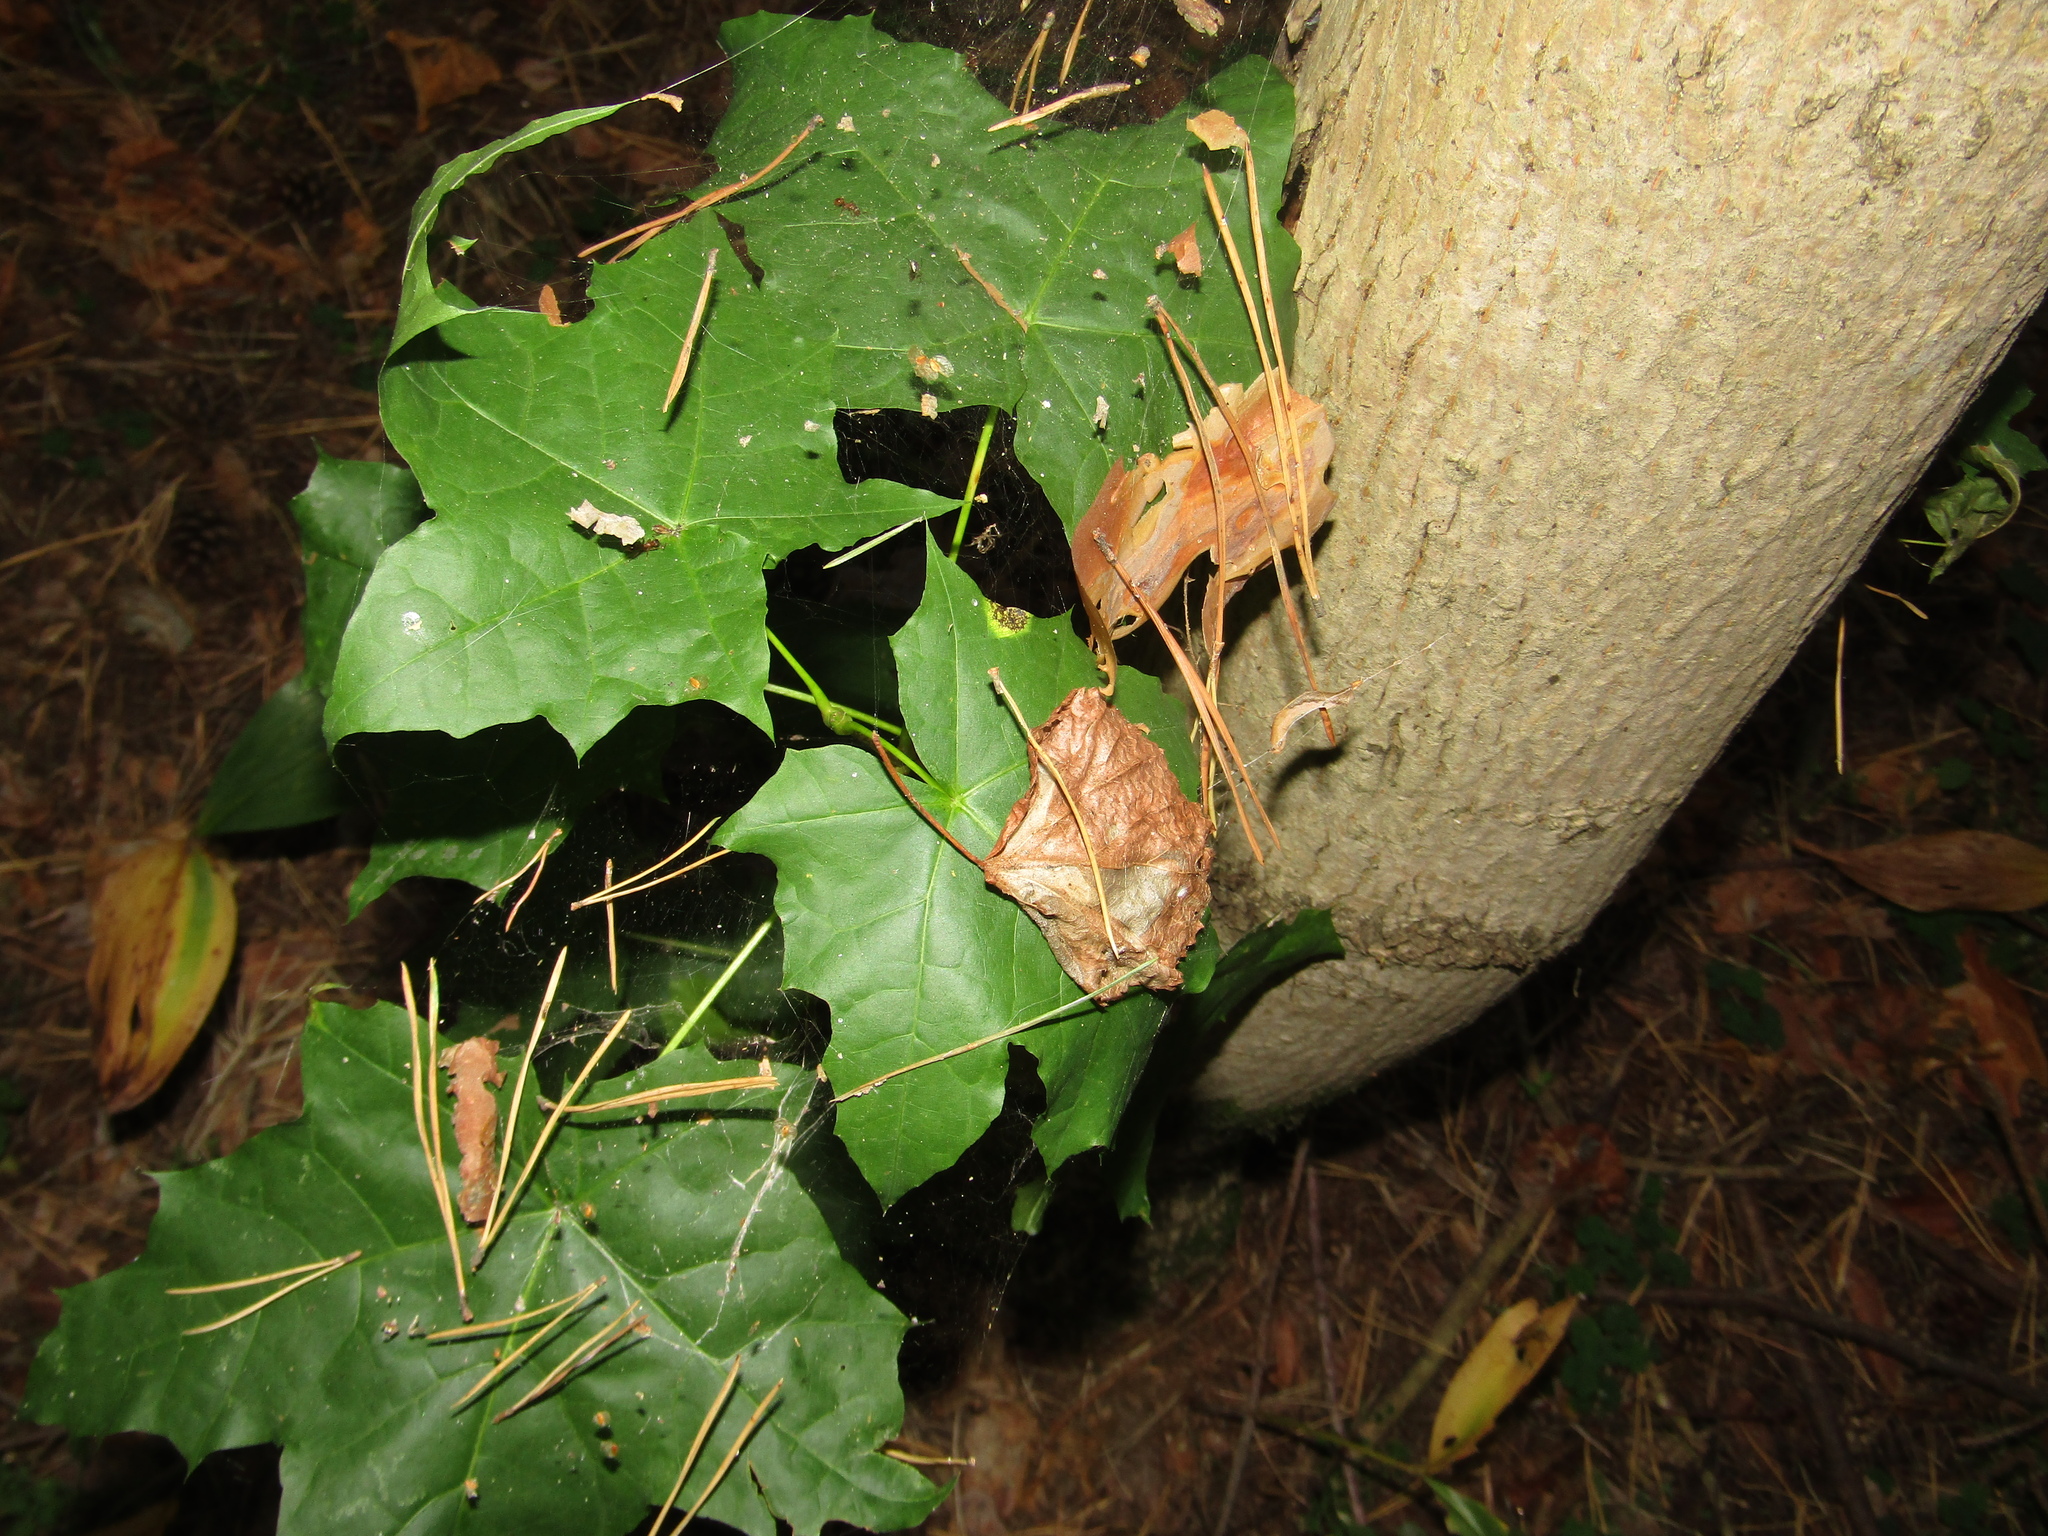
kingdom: Plantae
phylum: Tracheophyta
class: Magnoliopsida
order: Sapindales
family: Sapindaceae
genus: Acer
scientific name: Acer platanoides
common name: Norway maple
